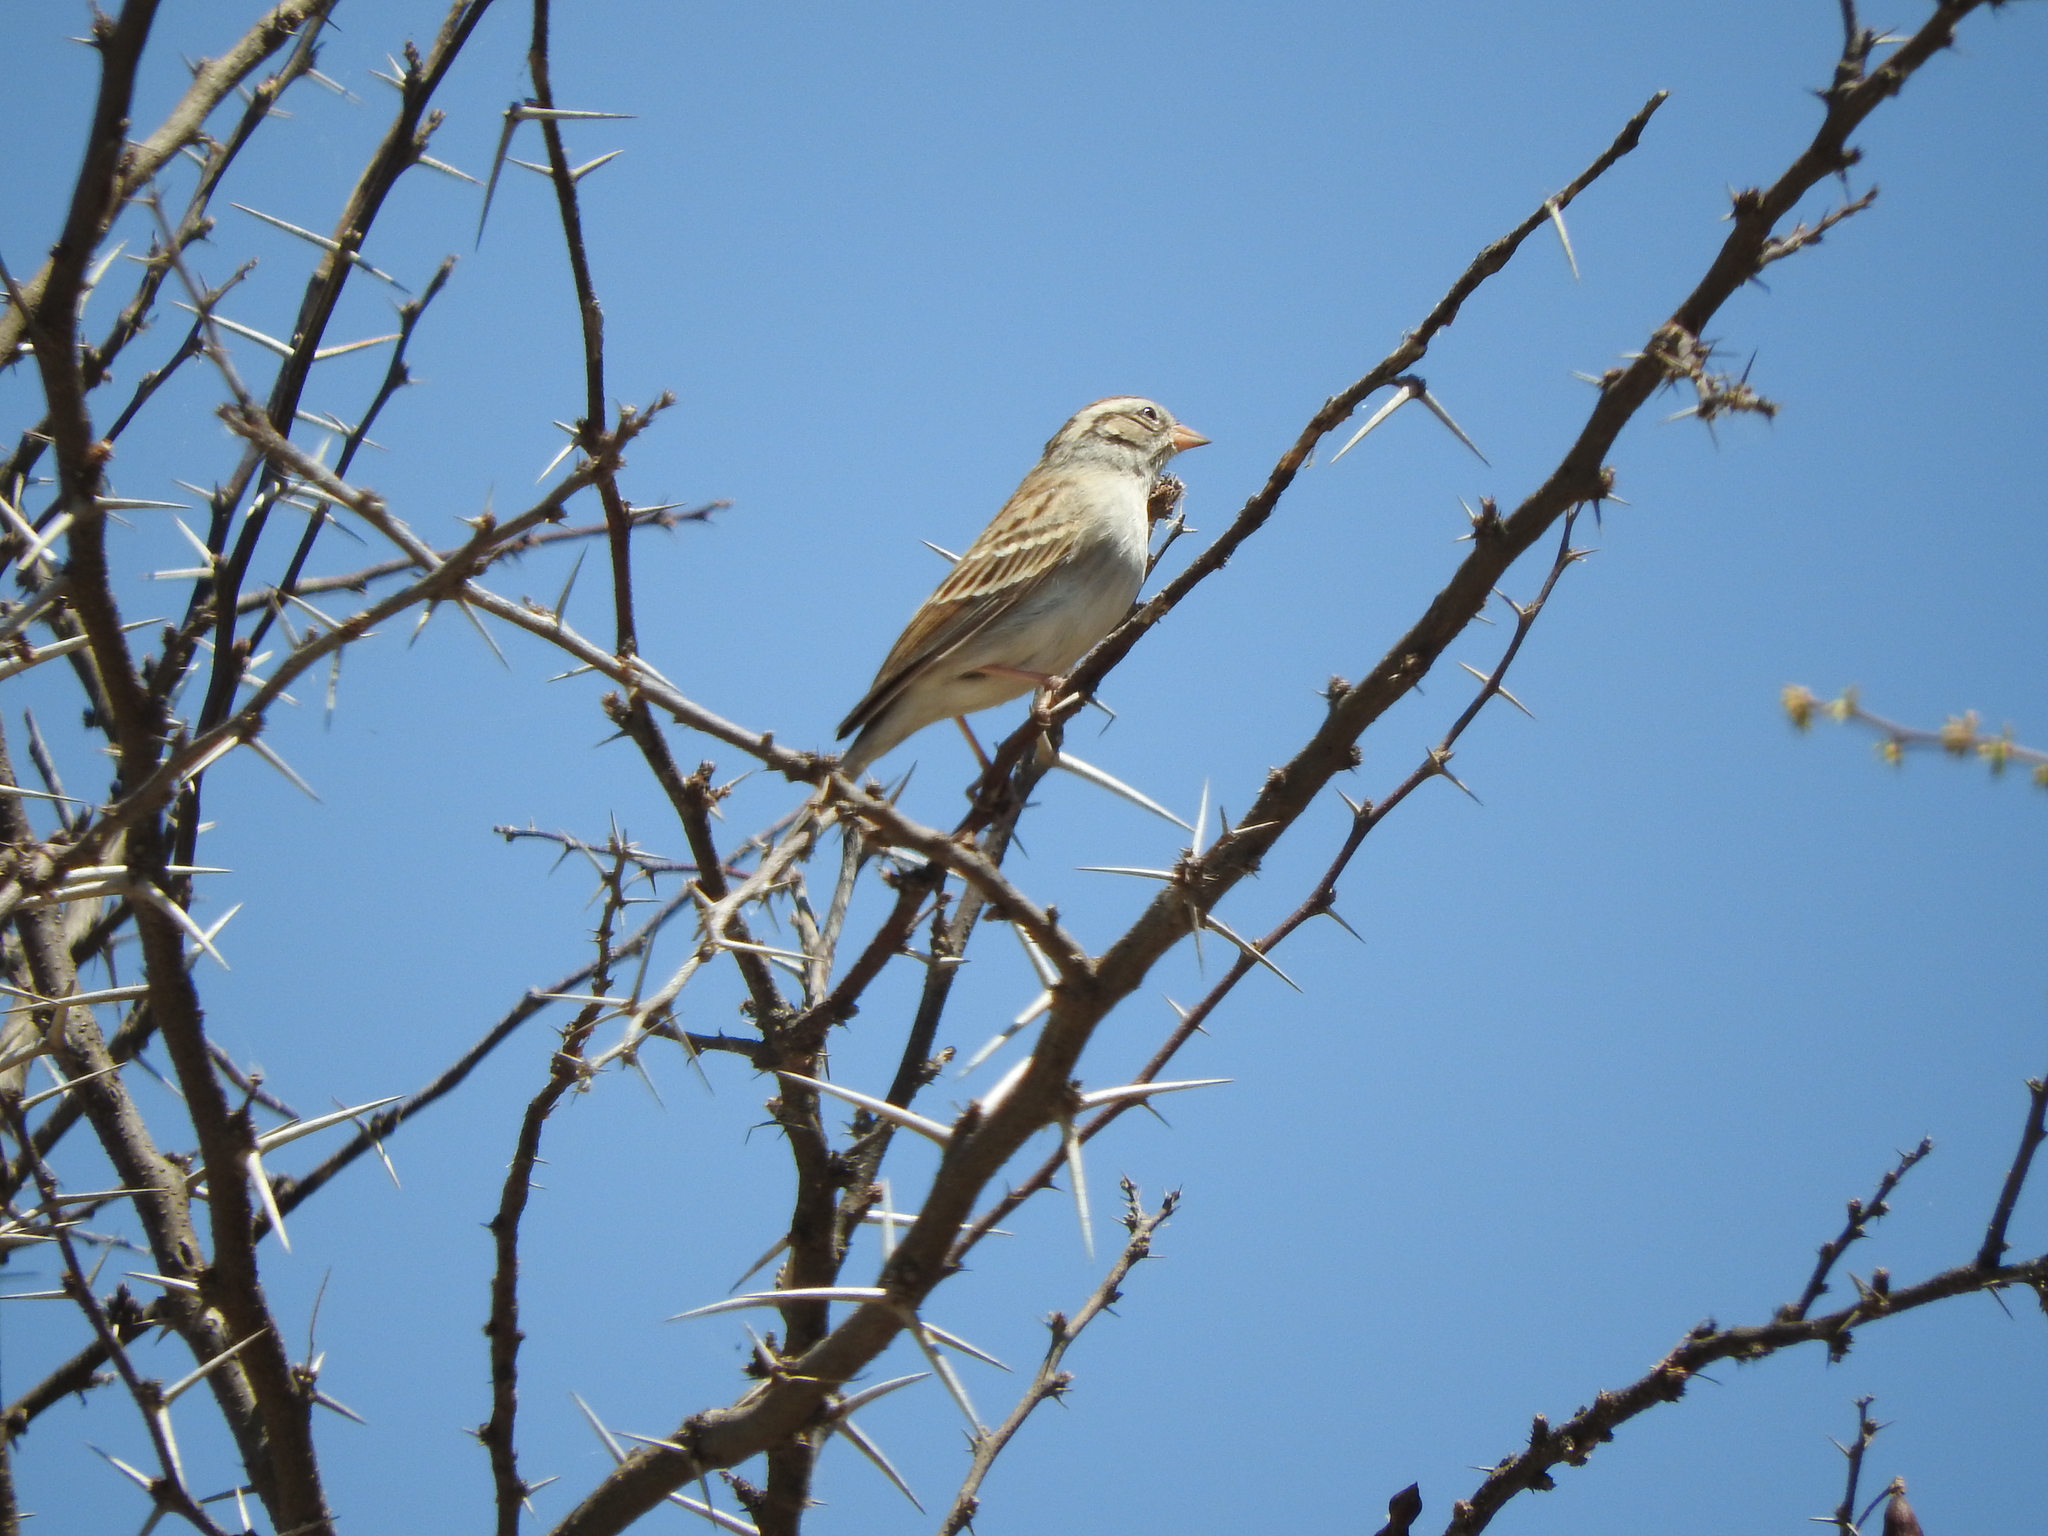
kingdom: Animalia
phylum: Chordata
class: Aves
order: Passeriformes
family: Passerellidae
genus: Spizella
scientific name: Spizella passerina
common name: Chipping sparrow
